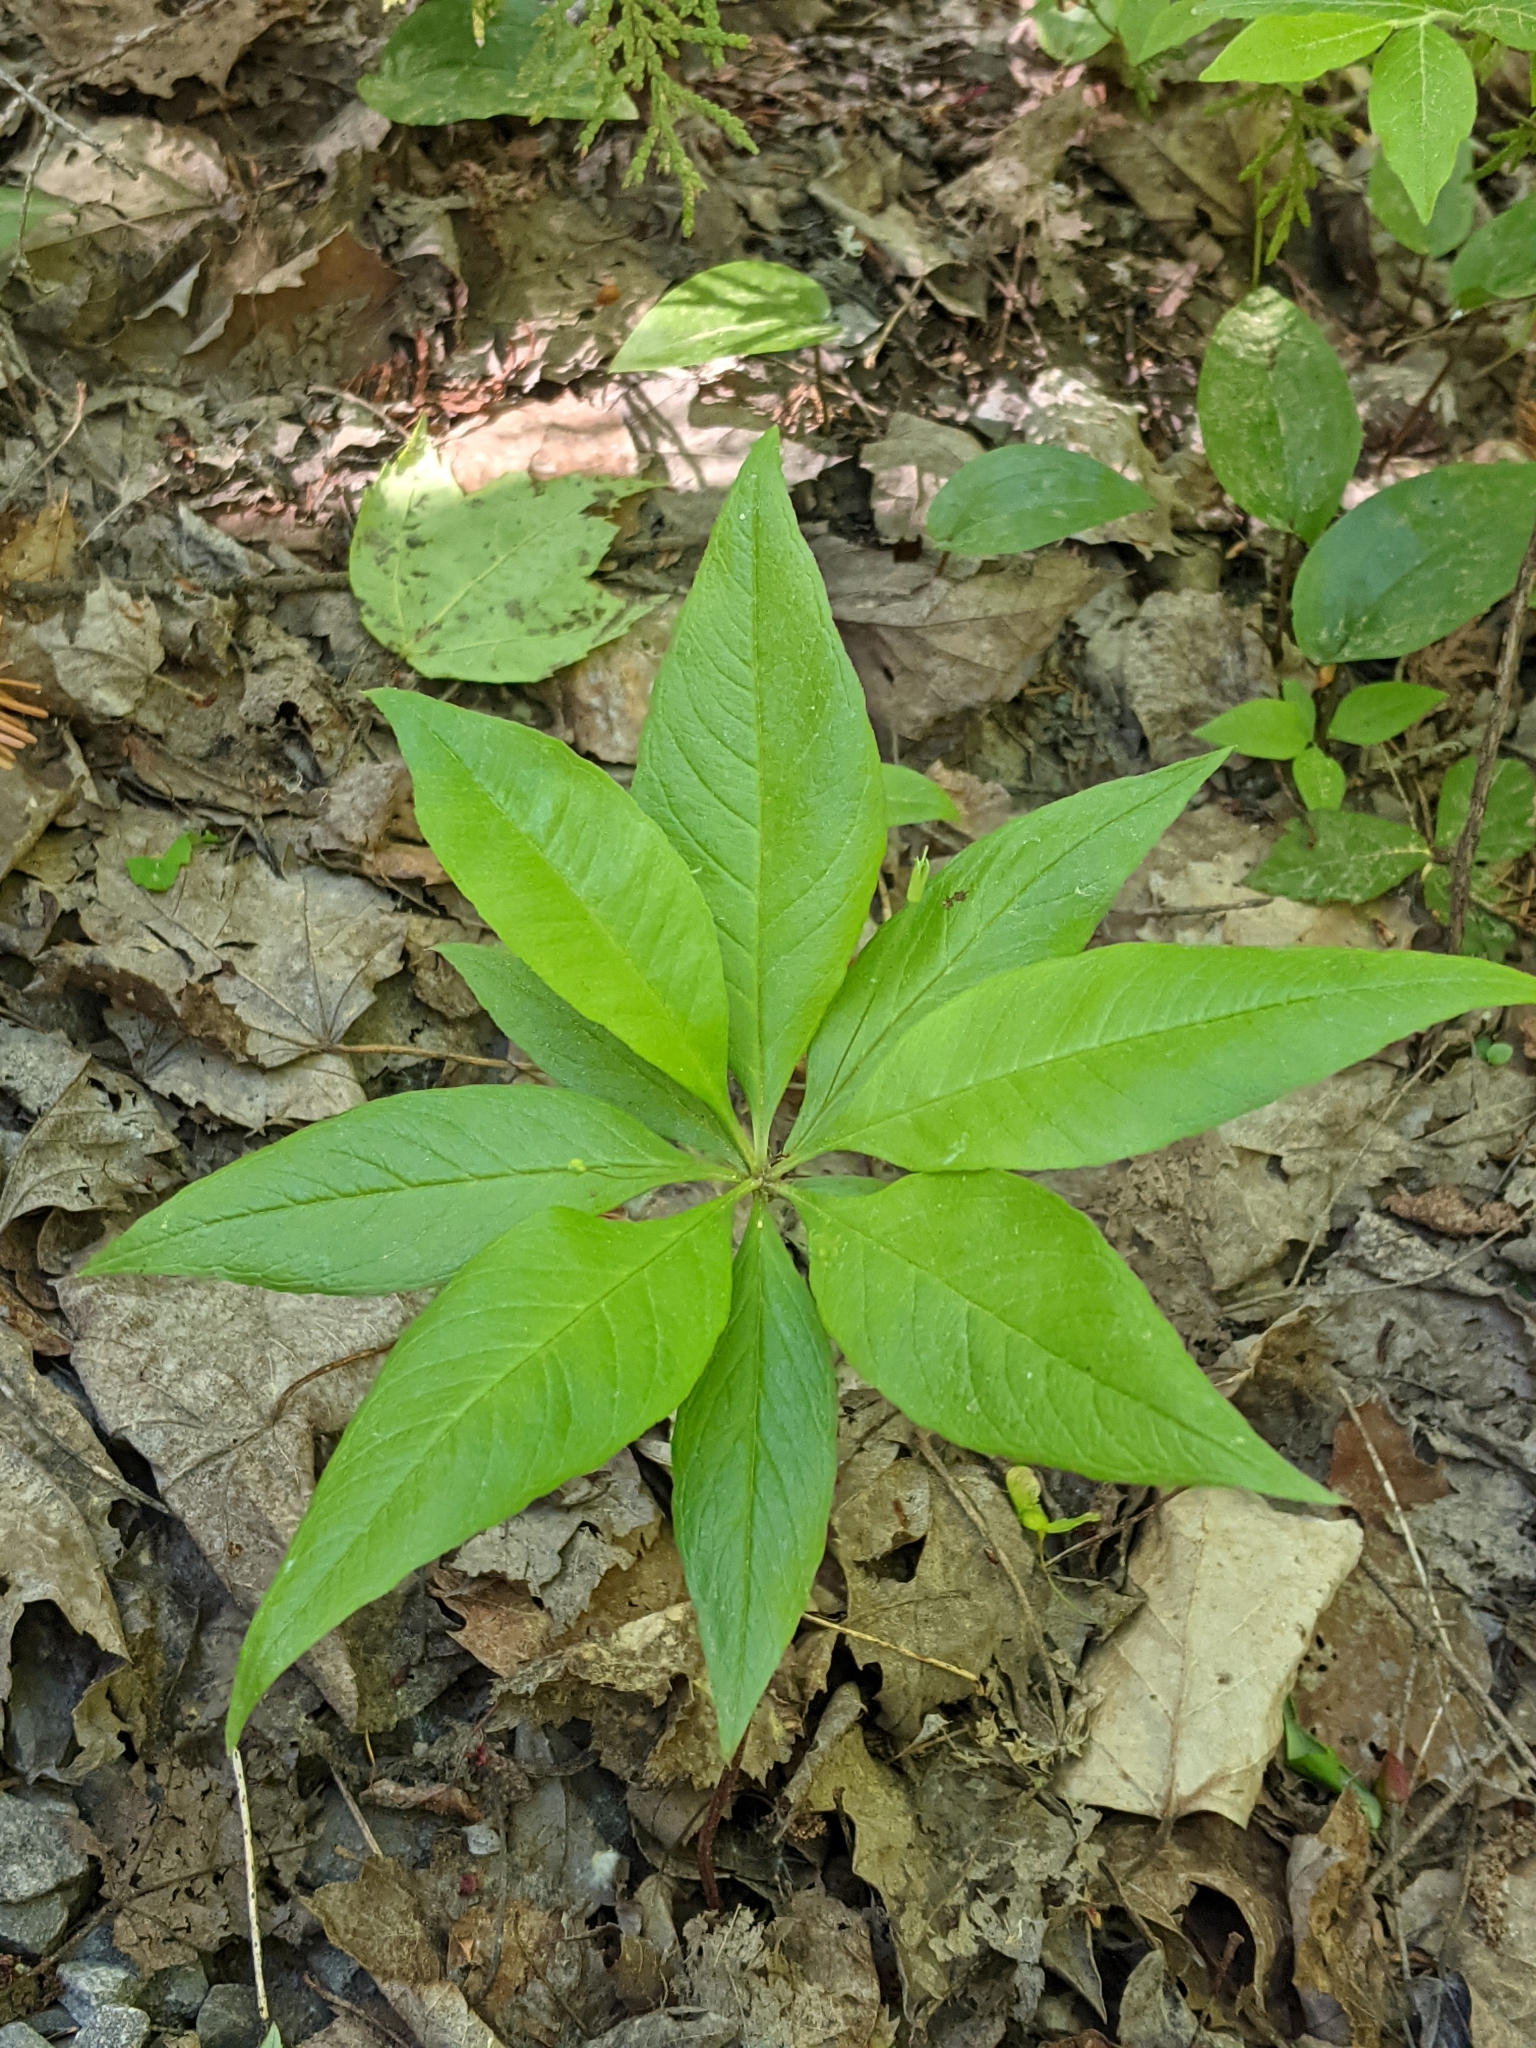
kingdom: Plantae
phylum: Tracheophyta
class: Magnoliopsida
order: Ericales
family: Primulaceae
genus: Lysimachia
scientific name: Lysimachia borealis
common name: American starflower
